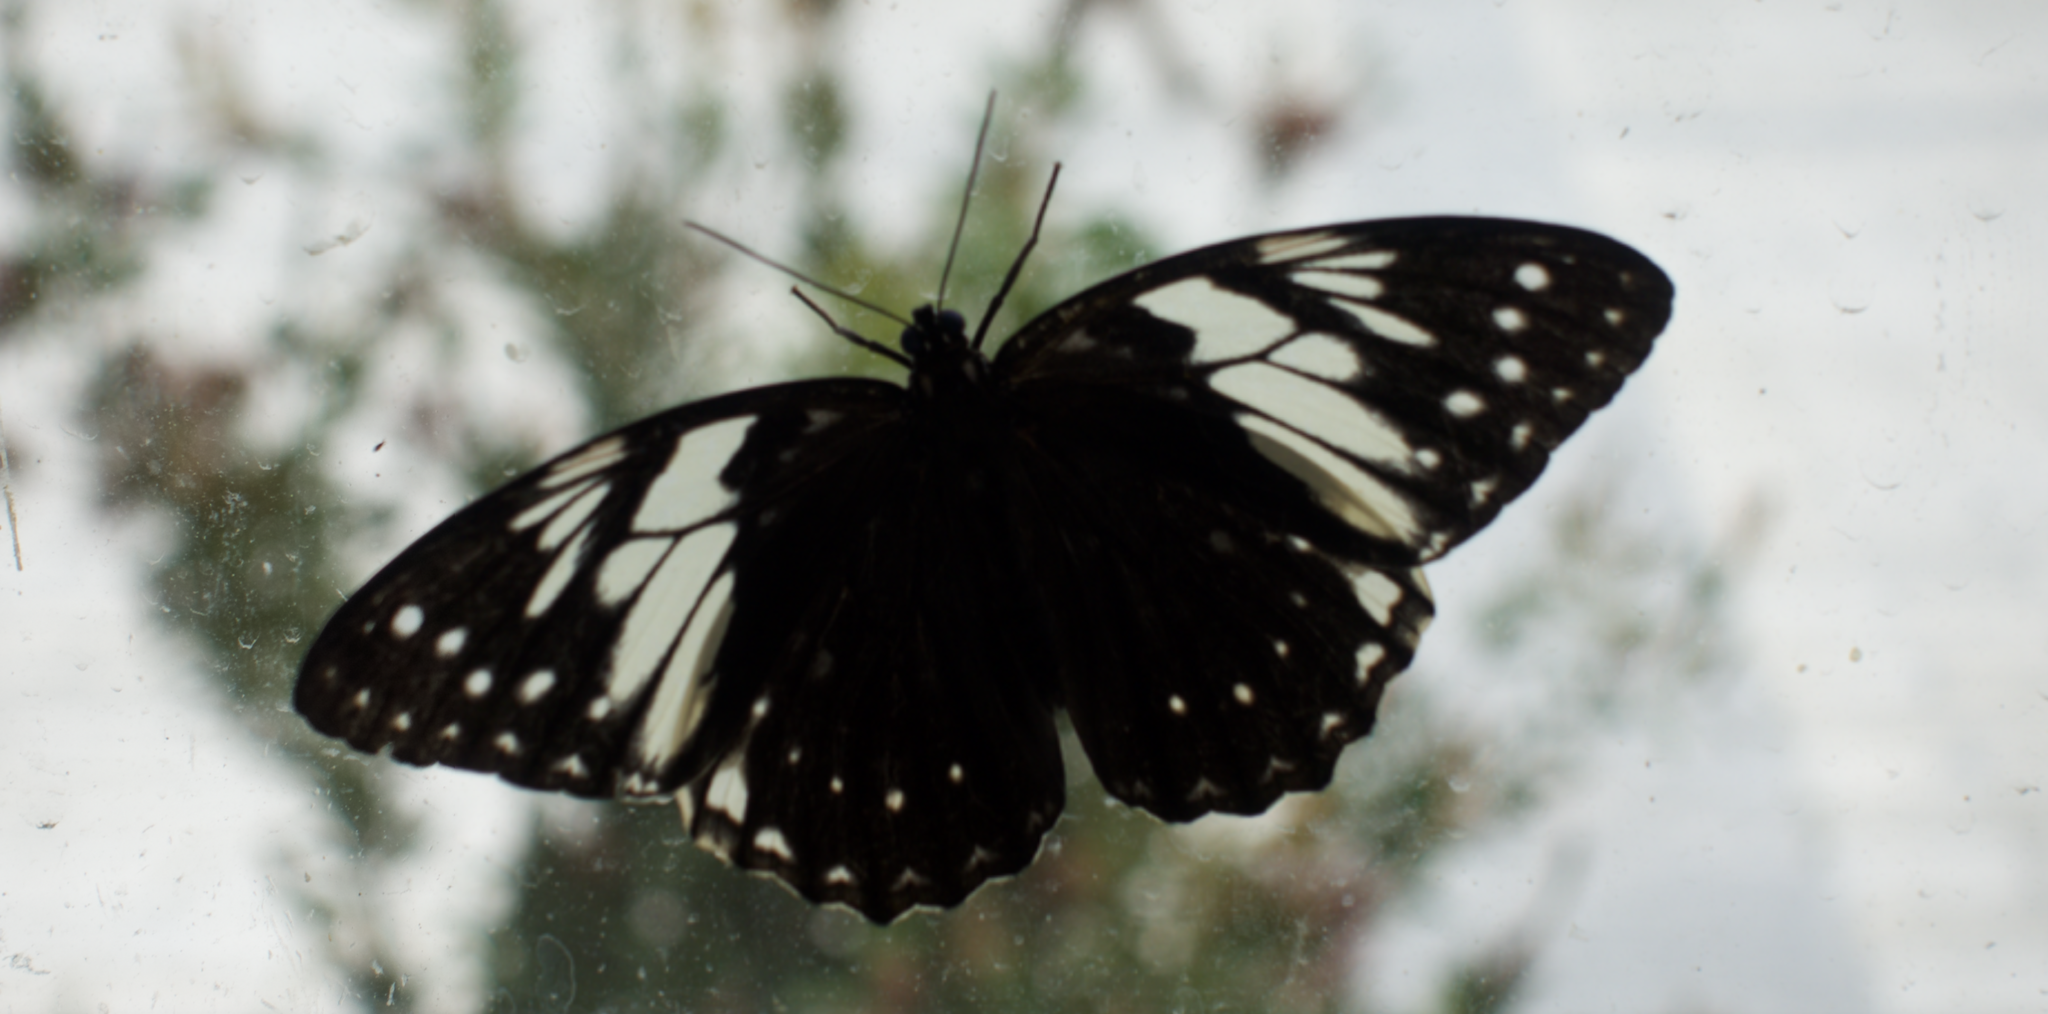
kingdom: Animalia
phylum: Arthropoda
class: Insecta
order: Lepidoptera
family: Nymphalidae
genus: Penthema
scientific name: Penthema adelma
